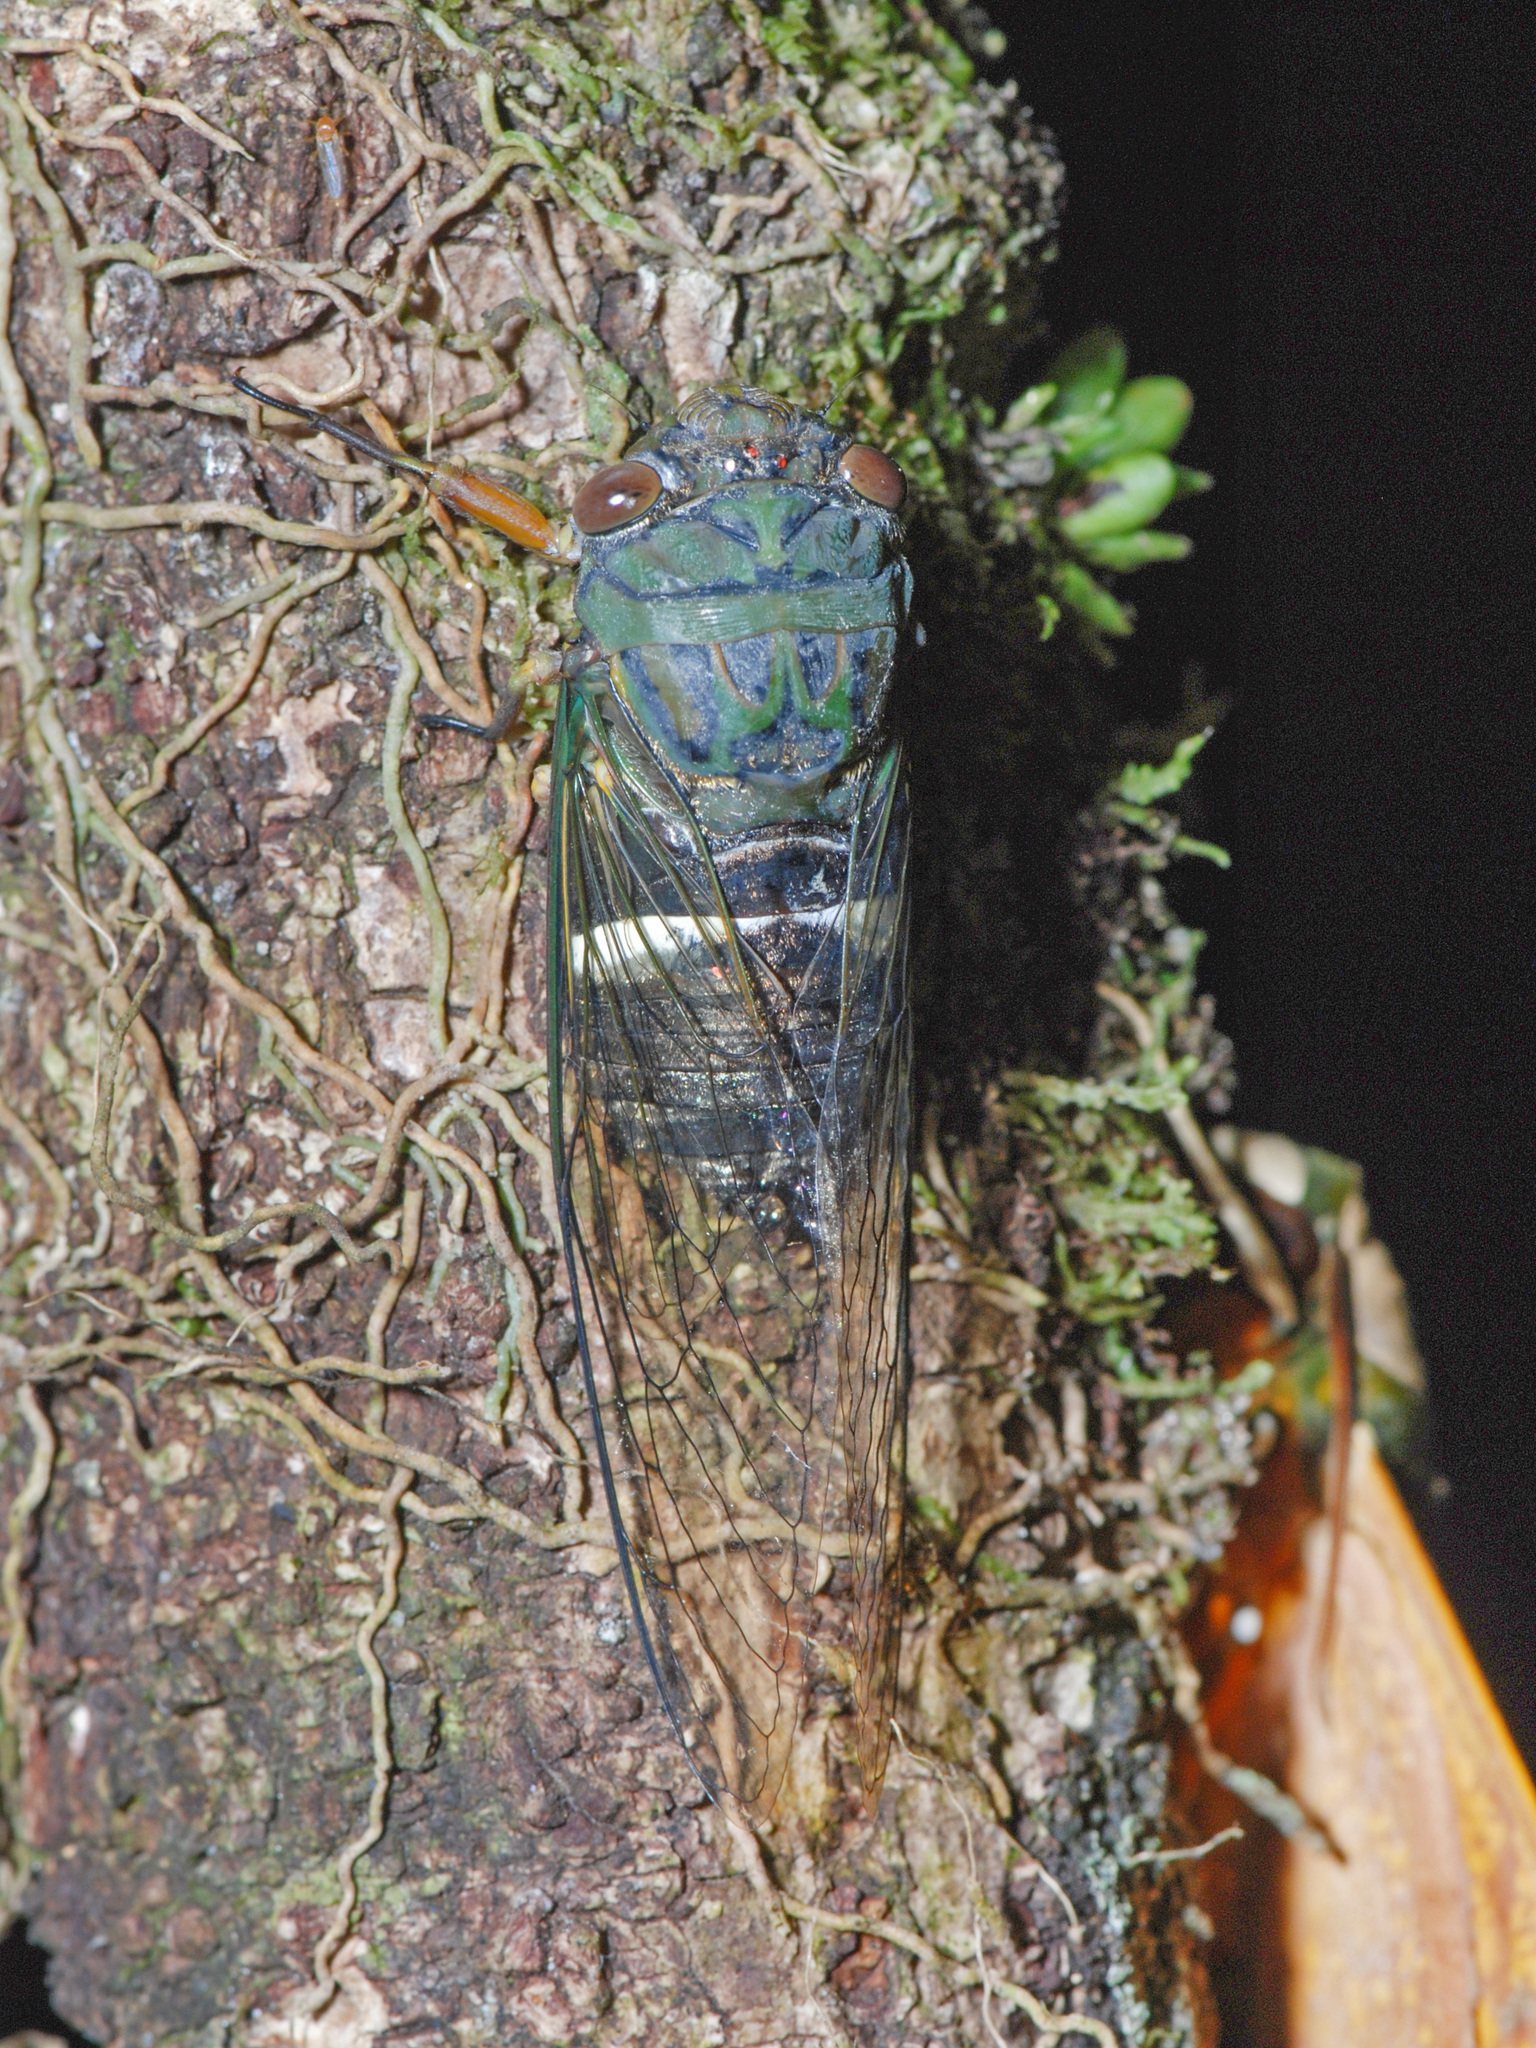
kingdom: Animalia
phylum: Arthropoda
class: Insecta
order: Hemiptera
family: Cicadidae
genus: Chremistica
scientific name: Chremistica guamusangensis
